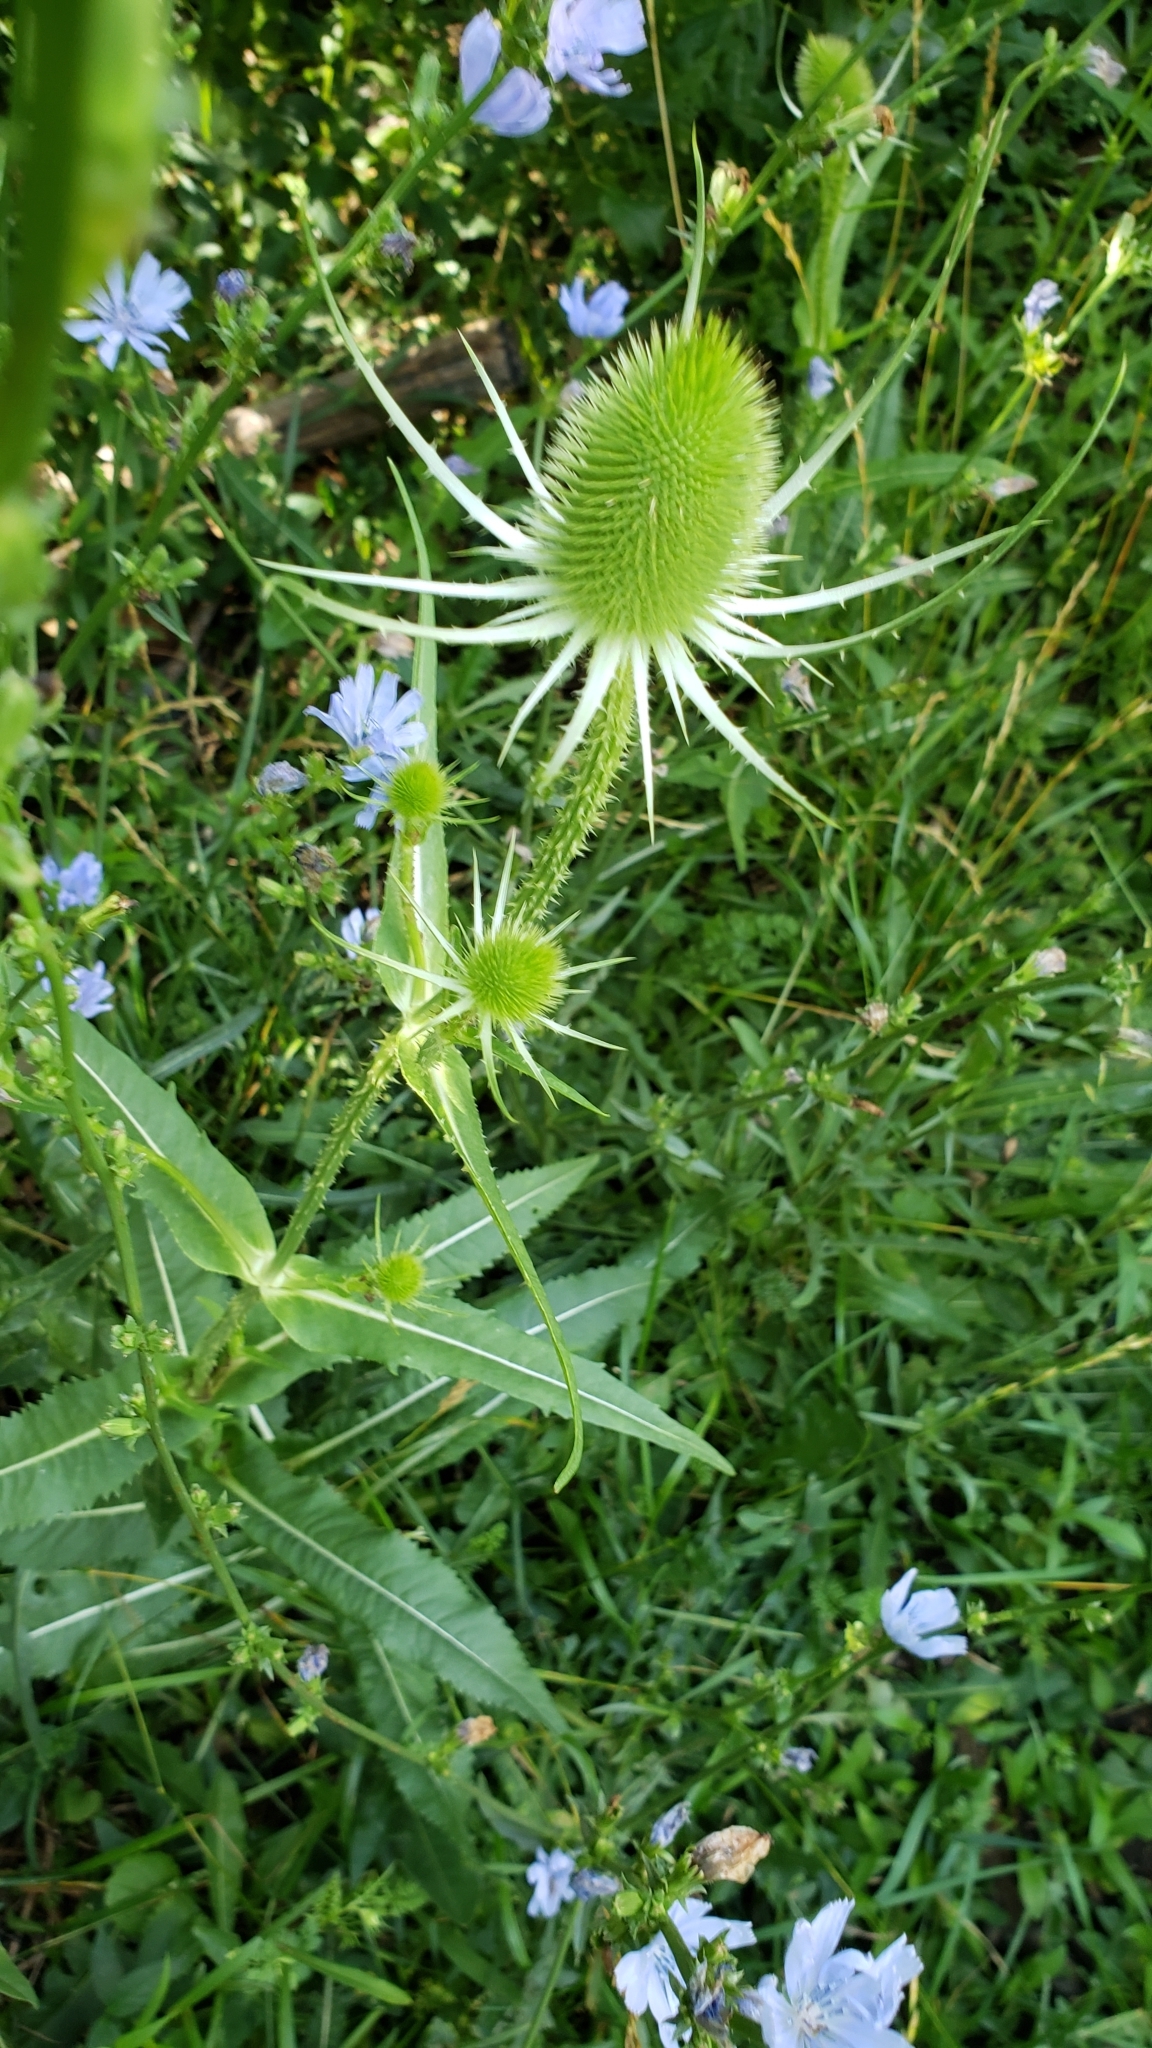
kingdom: Plantae
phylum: Tracheophyta
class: Magnoliopsida
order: Dipsacales
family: Caprifoliaceae
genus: Dipsacus
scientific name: Dipsacus fullonum
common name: Teasel
